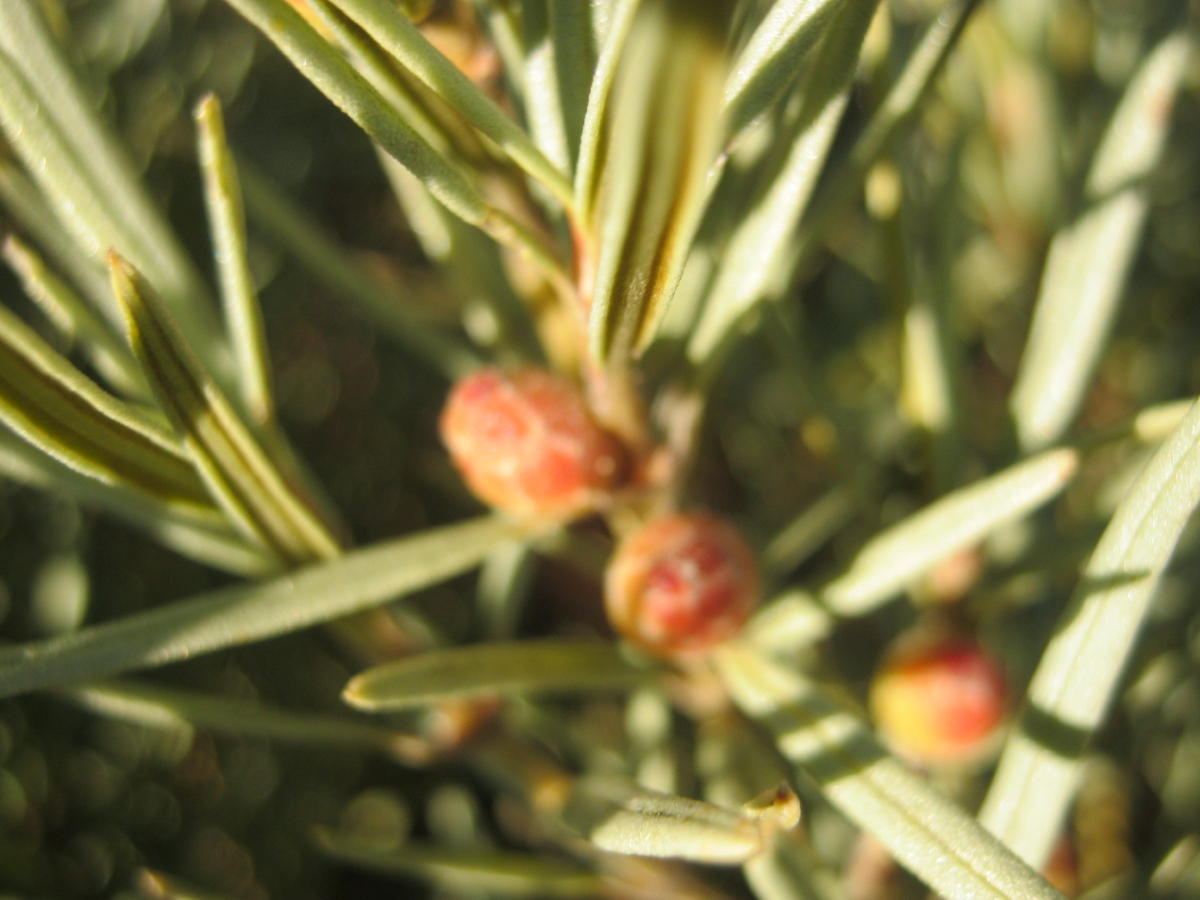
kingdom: Plantae
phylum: Tracheophyta
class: Magnoliopsida
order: Cornales
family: Grubbiaceae
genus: Grubbia
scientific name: Grubbia tomentosa
